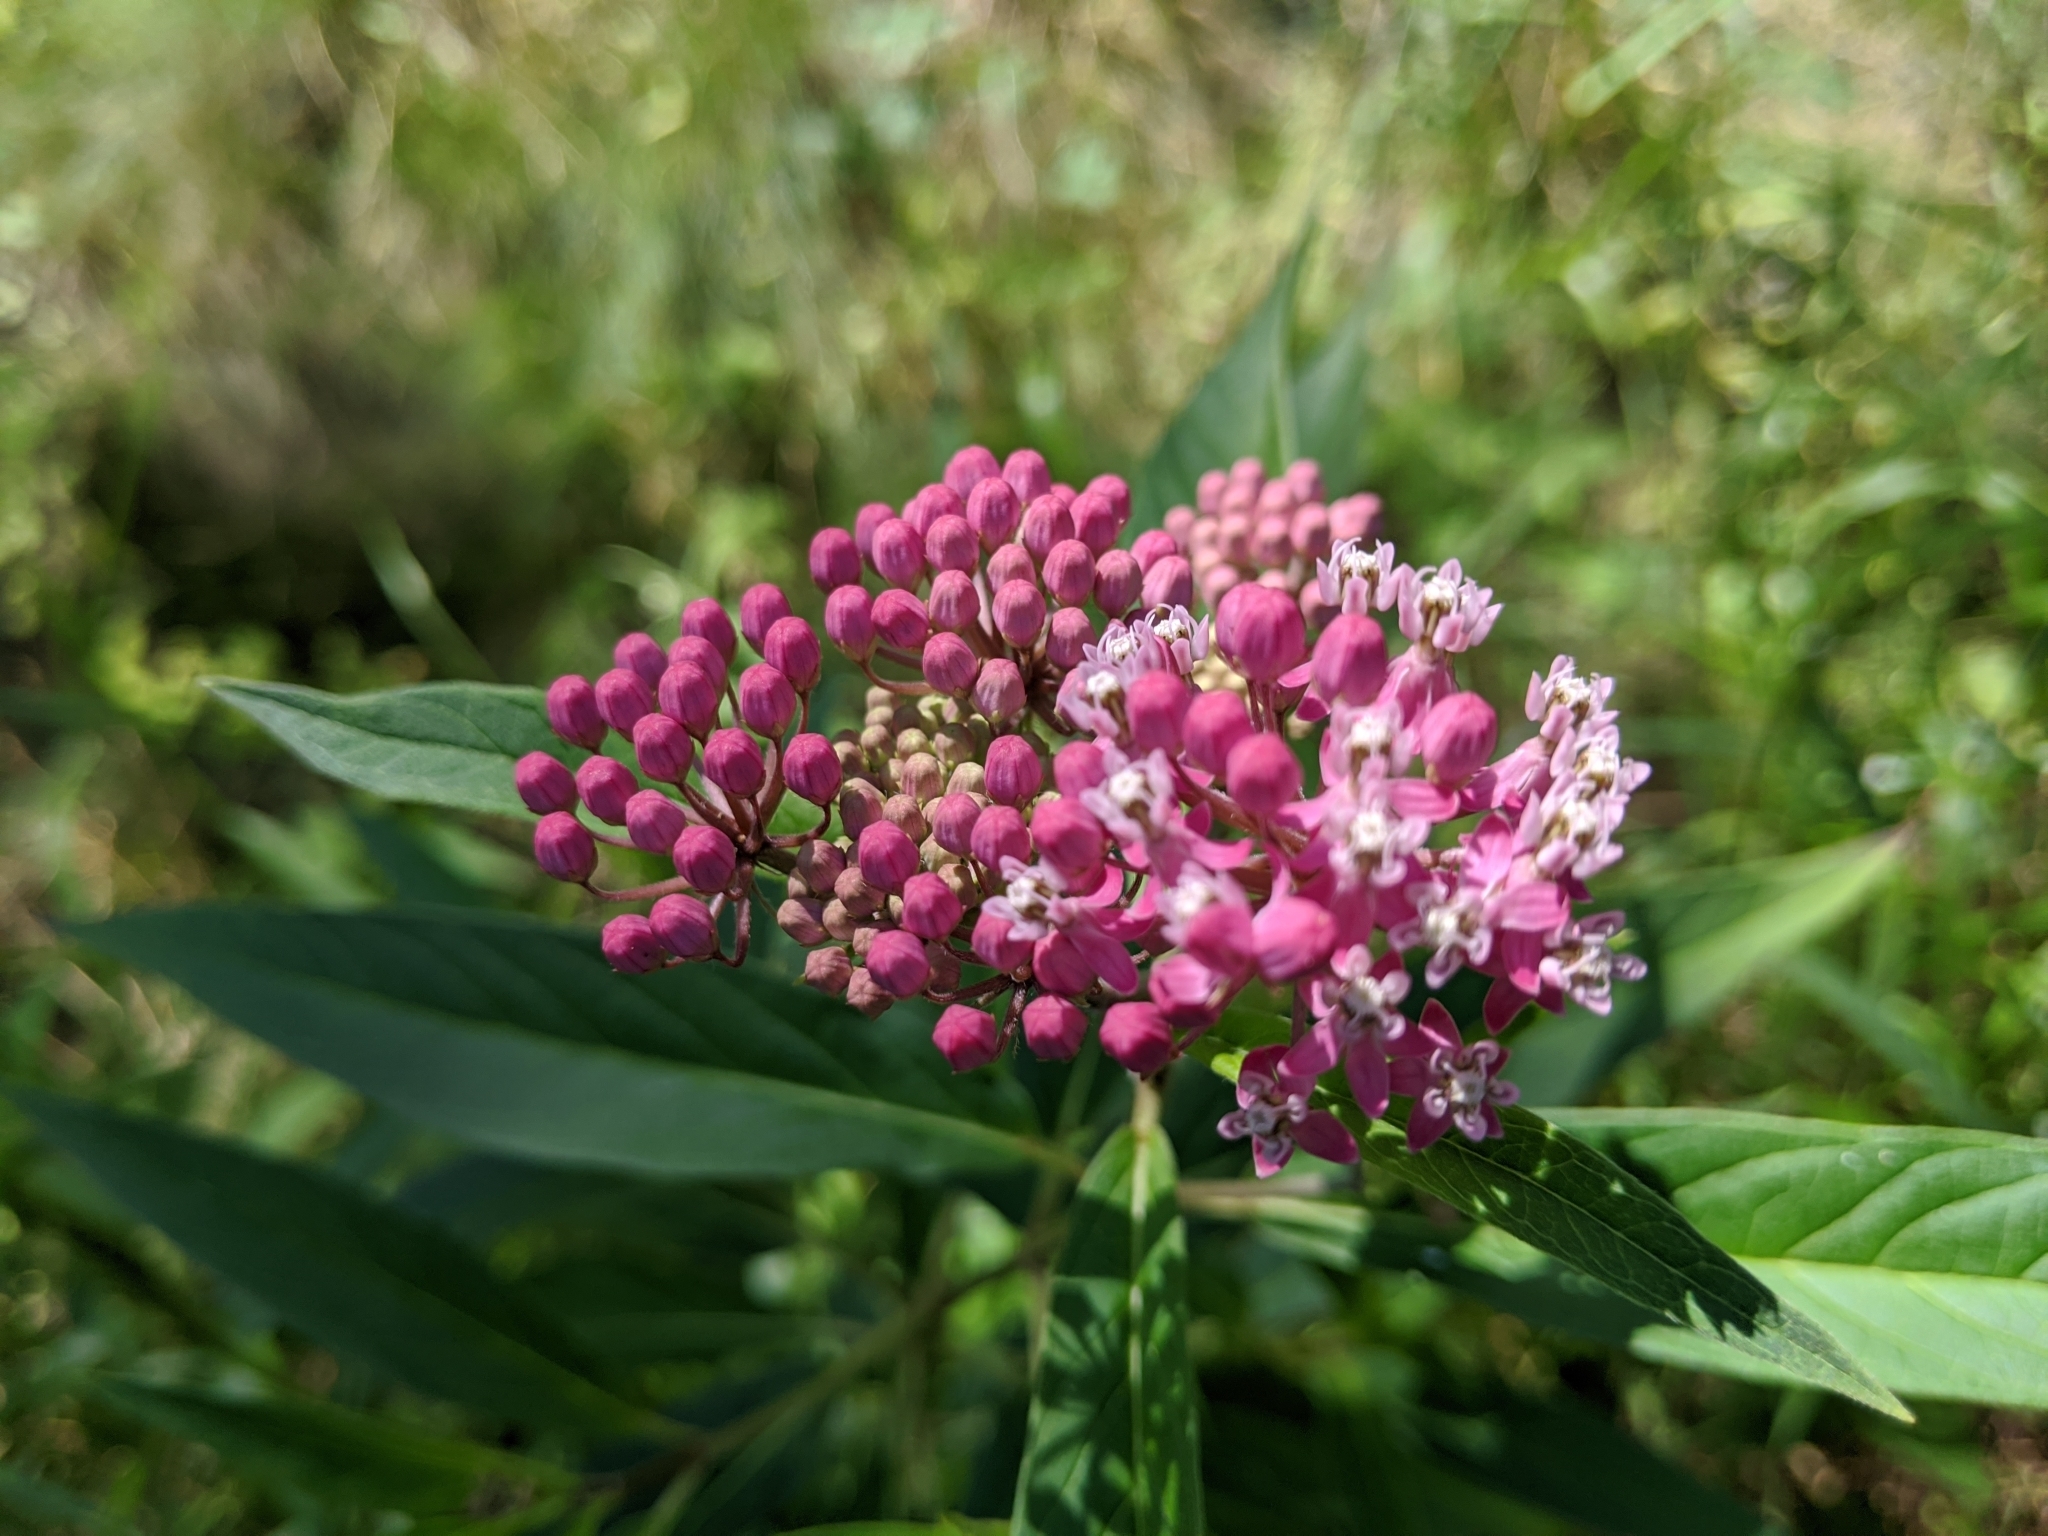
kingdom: Plantae
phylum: Tracheophyta
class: Magnoliopsida
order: Gentianales
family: Apocynaceae
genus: Asclepias
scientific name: Asclepias incarnata
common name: Swamp milkweed
